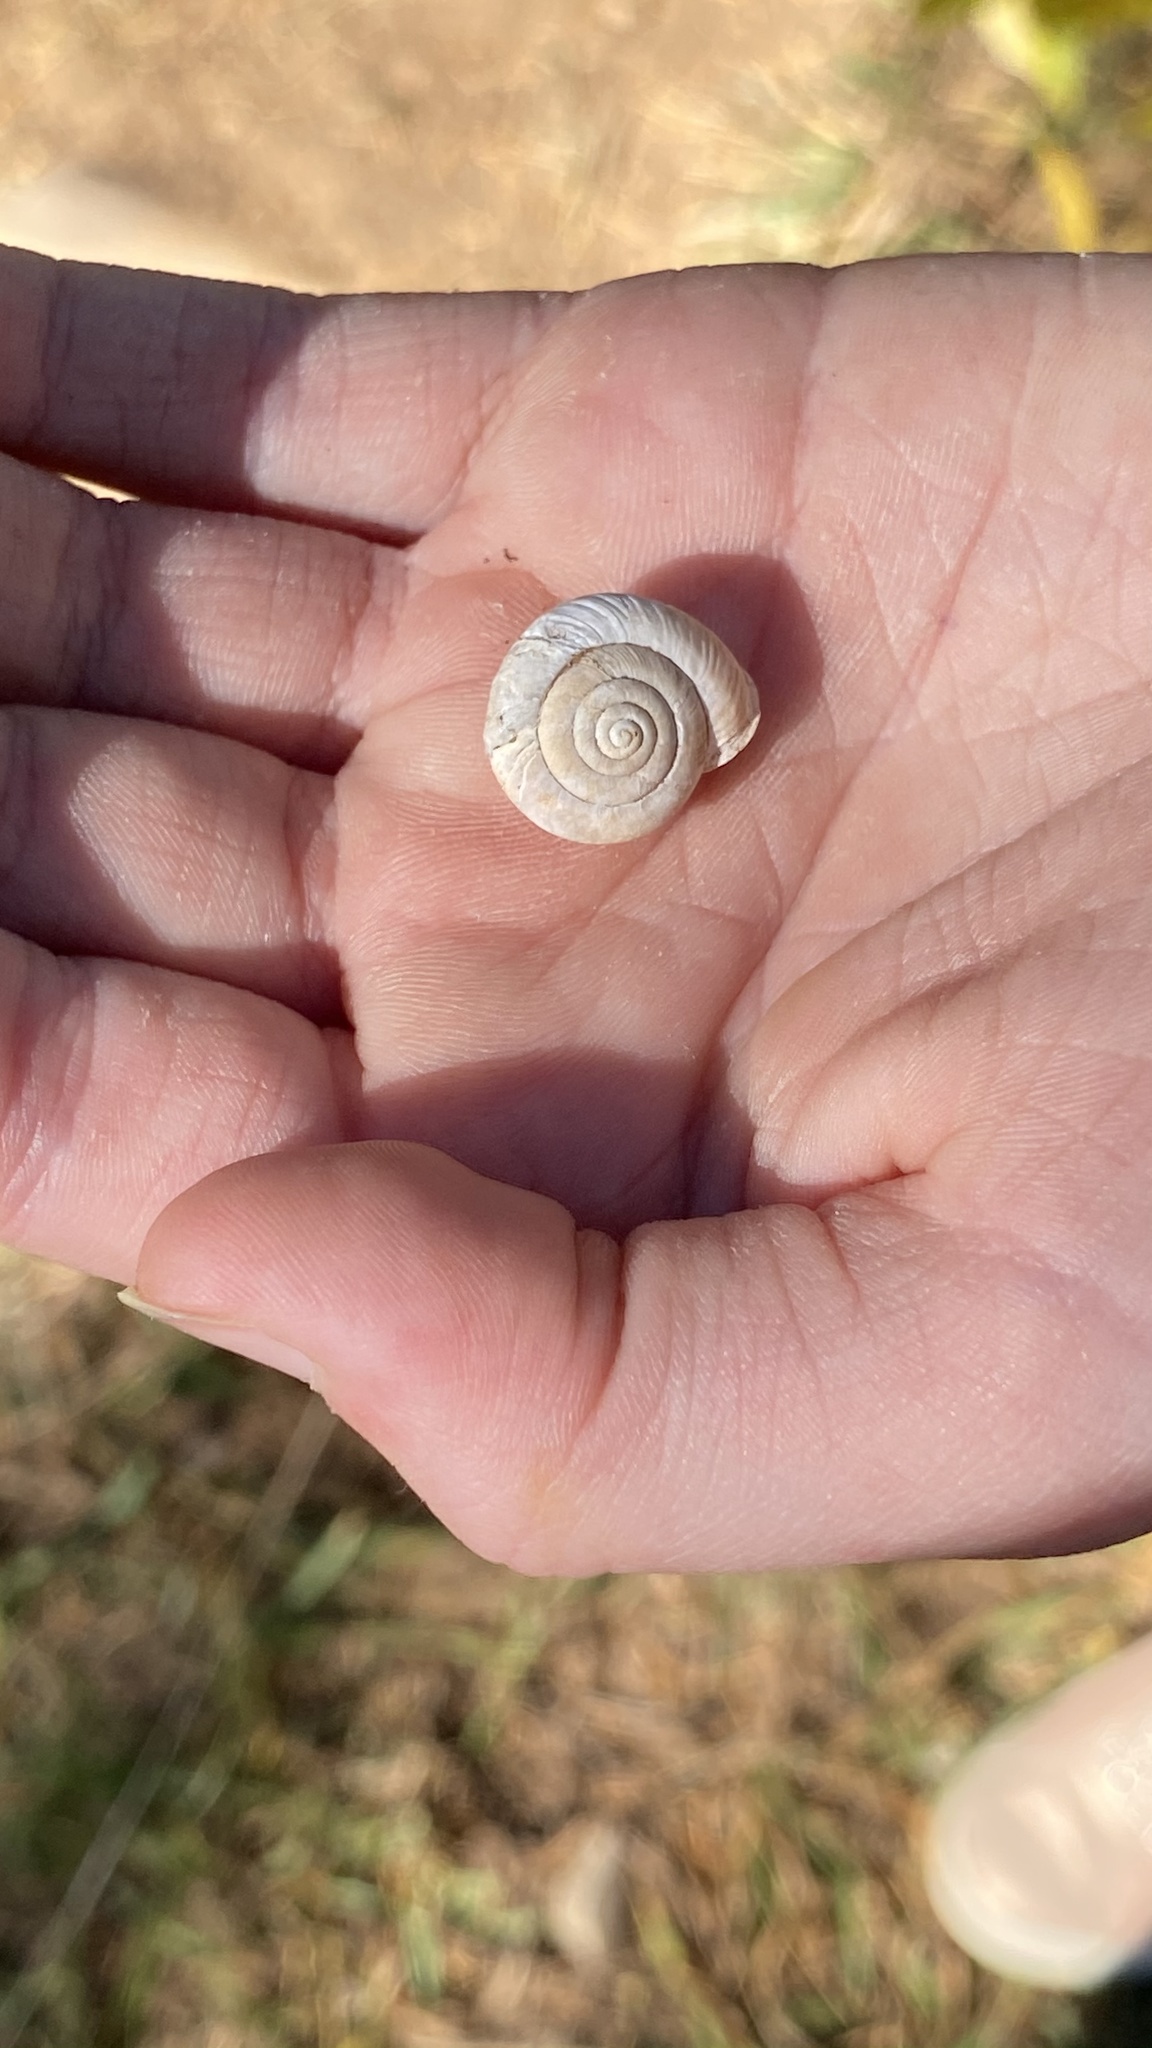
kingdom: Animalia
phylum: Mollusca
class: Gastropoda
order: Stylommatophora
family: Polygyridae
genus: Ashmunella
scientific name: Ashmunella rhyssa
